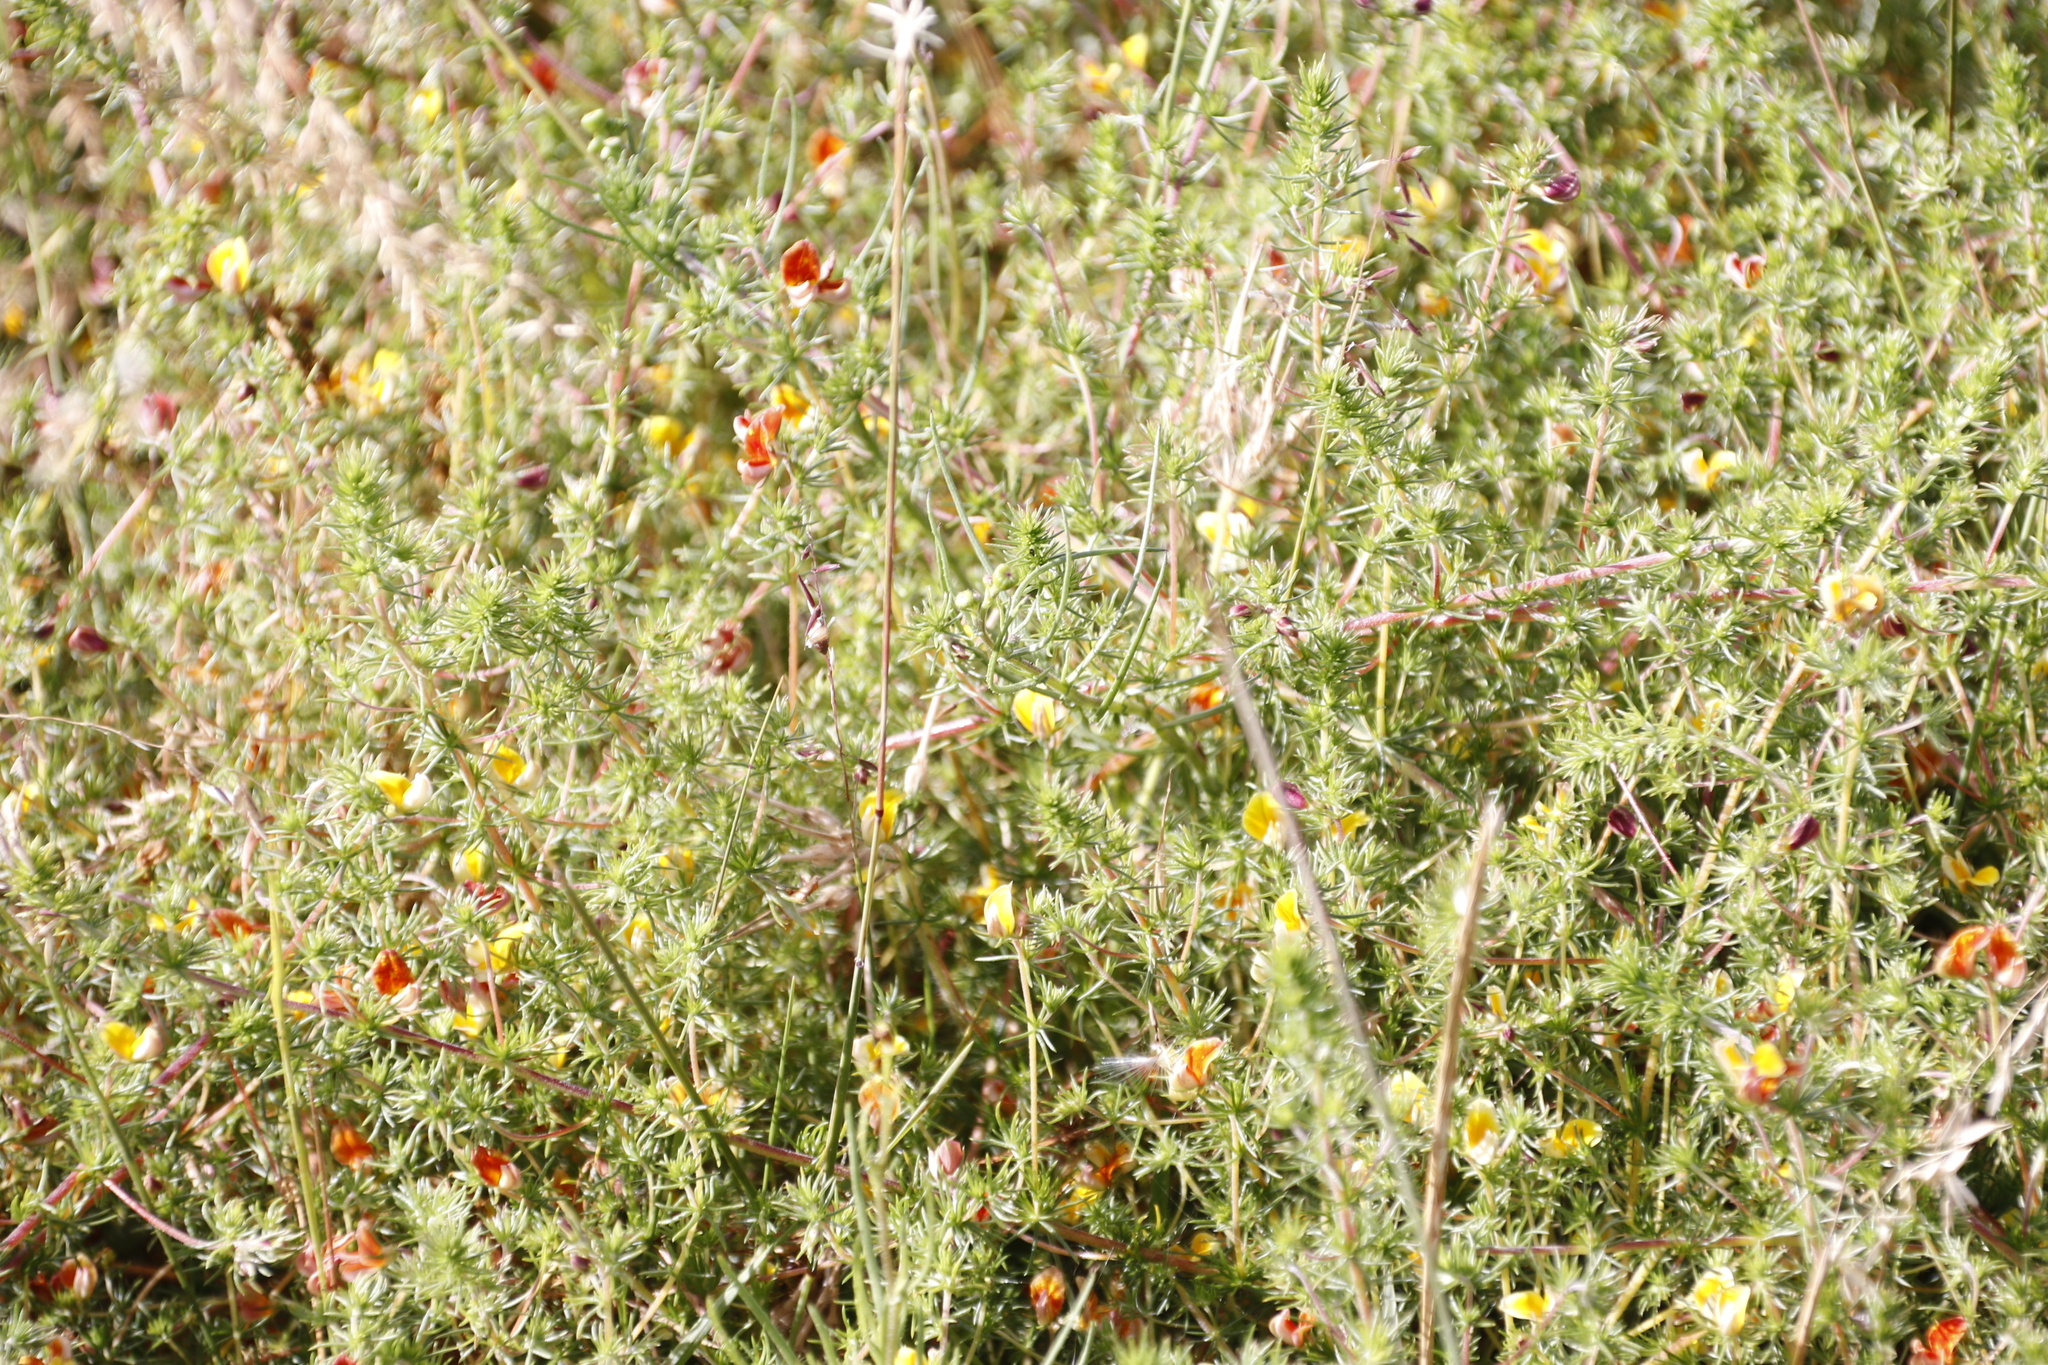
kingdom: Plantae
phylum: Tracheophyta
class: Magnoliopsida
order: Fabales
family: Fabaceae
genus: Aspalathus
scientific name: Aspalathus retroflexa
